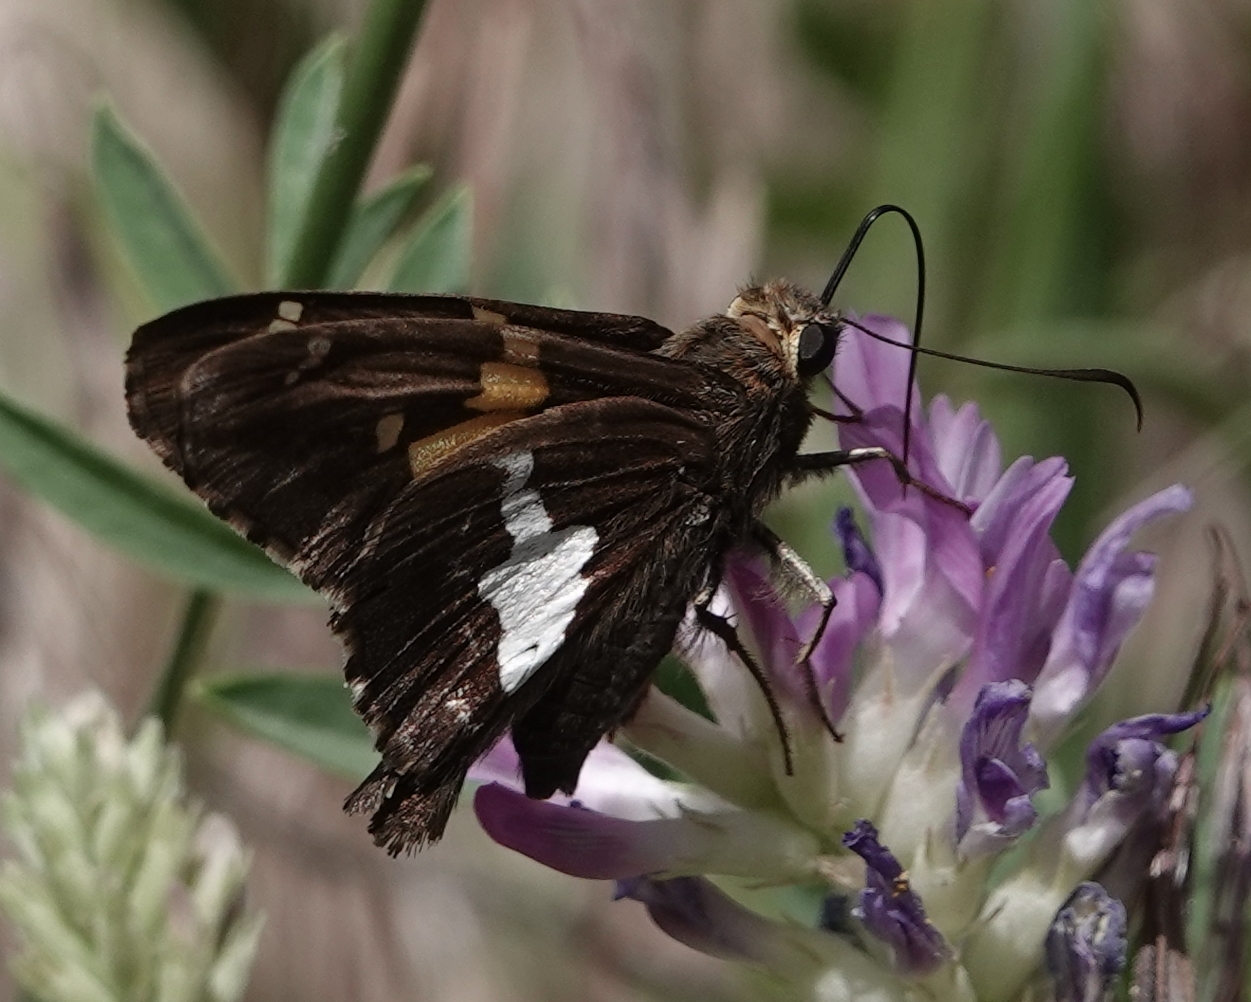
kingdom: Animalia
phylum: Arthropoda
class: Insecta
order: Lepidoptera
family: Hesperiidae
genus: Epargyreus
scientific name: Epargyreus clarus
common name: Silver-spotted skipper
